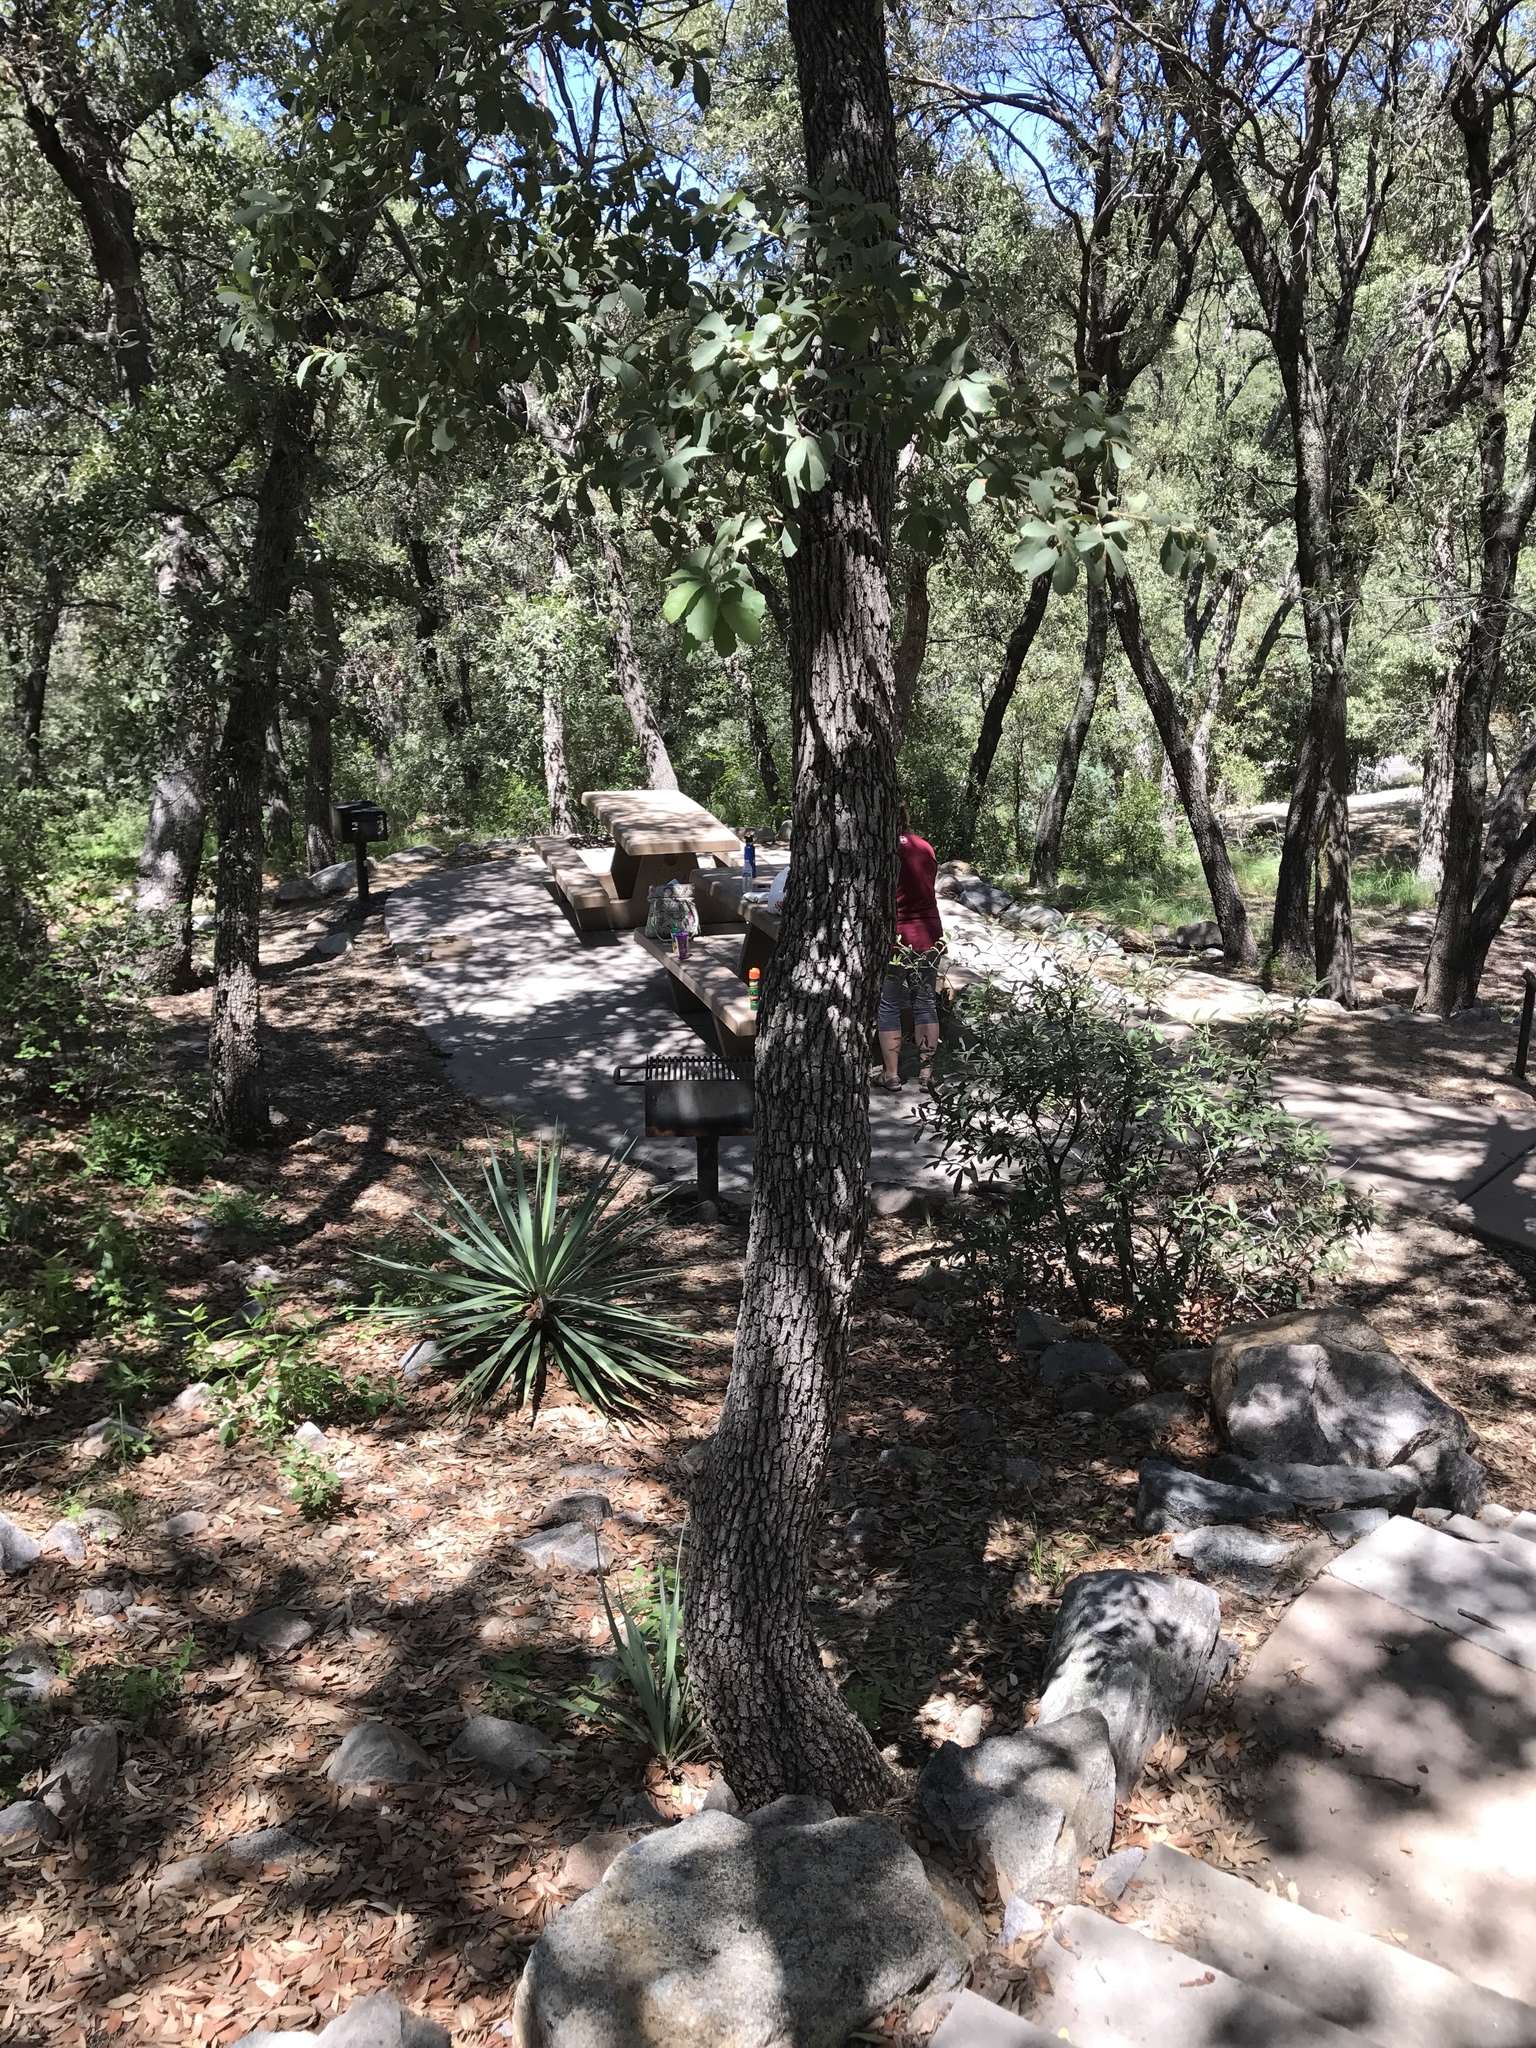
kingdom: Plantae
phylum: Tracheophyta
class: Magnoliopsida
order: Fagales
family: Fagaceae
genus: Quercus
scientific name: Quercus grisea
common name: Gray oak
